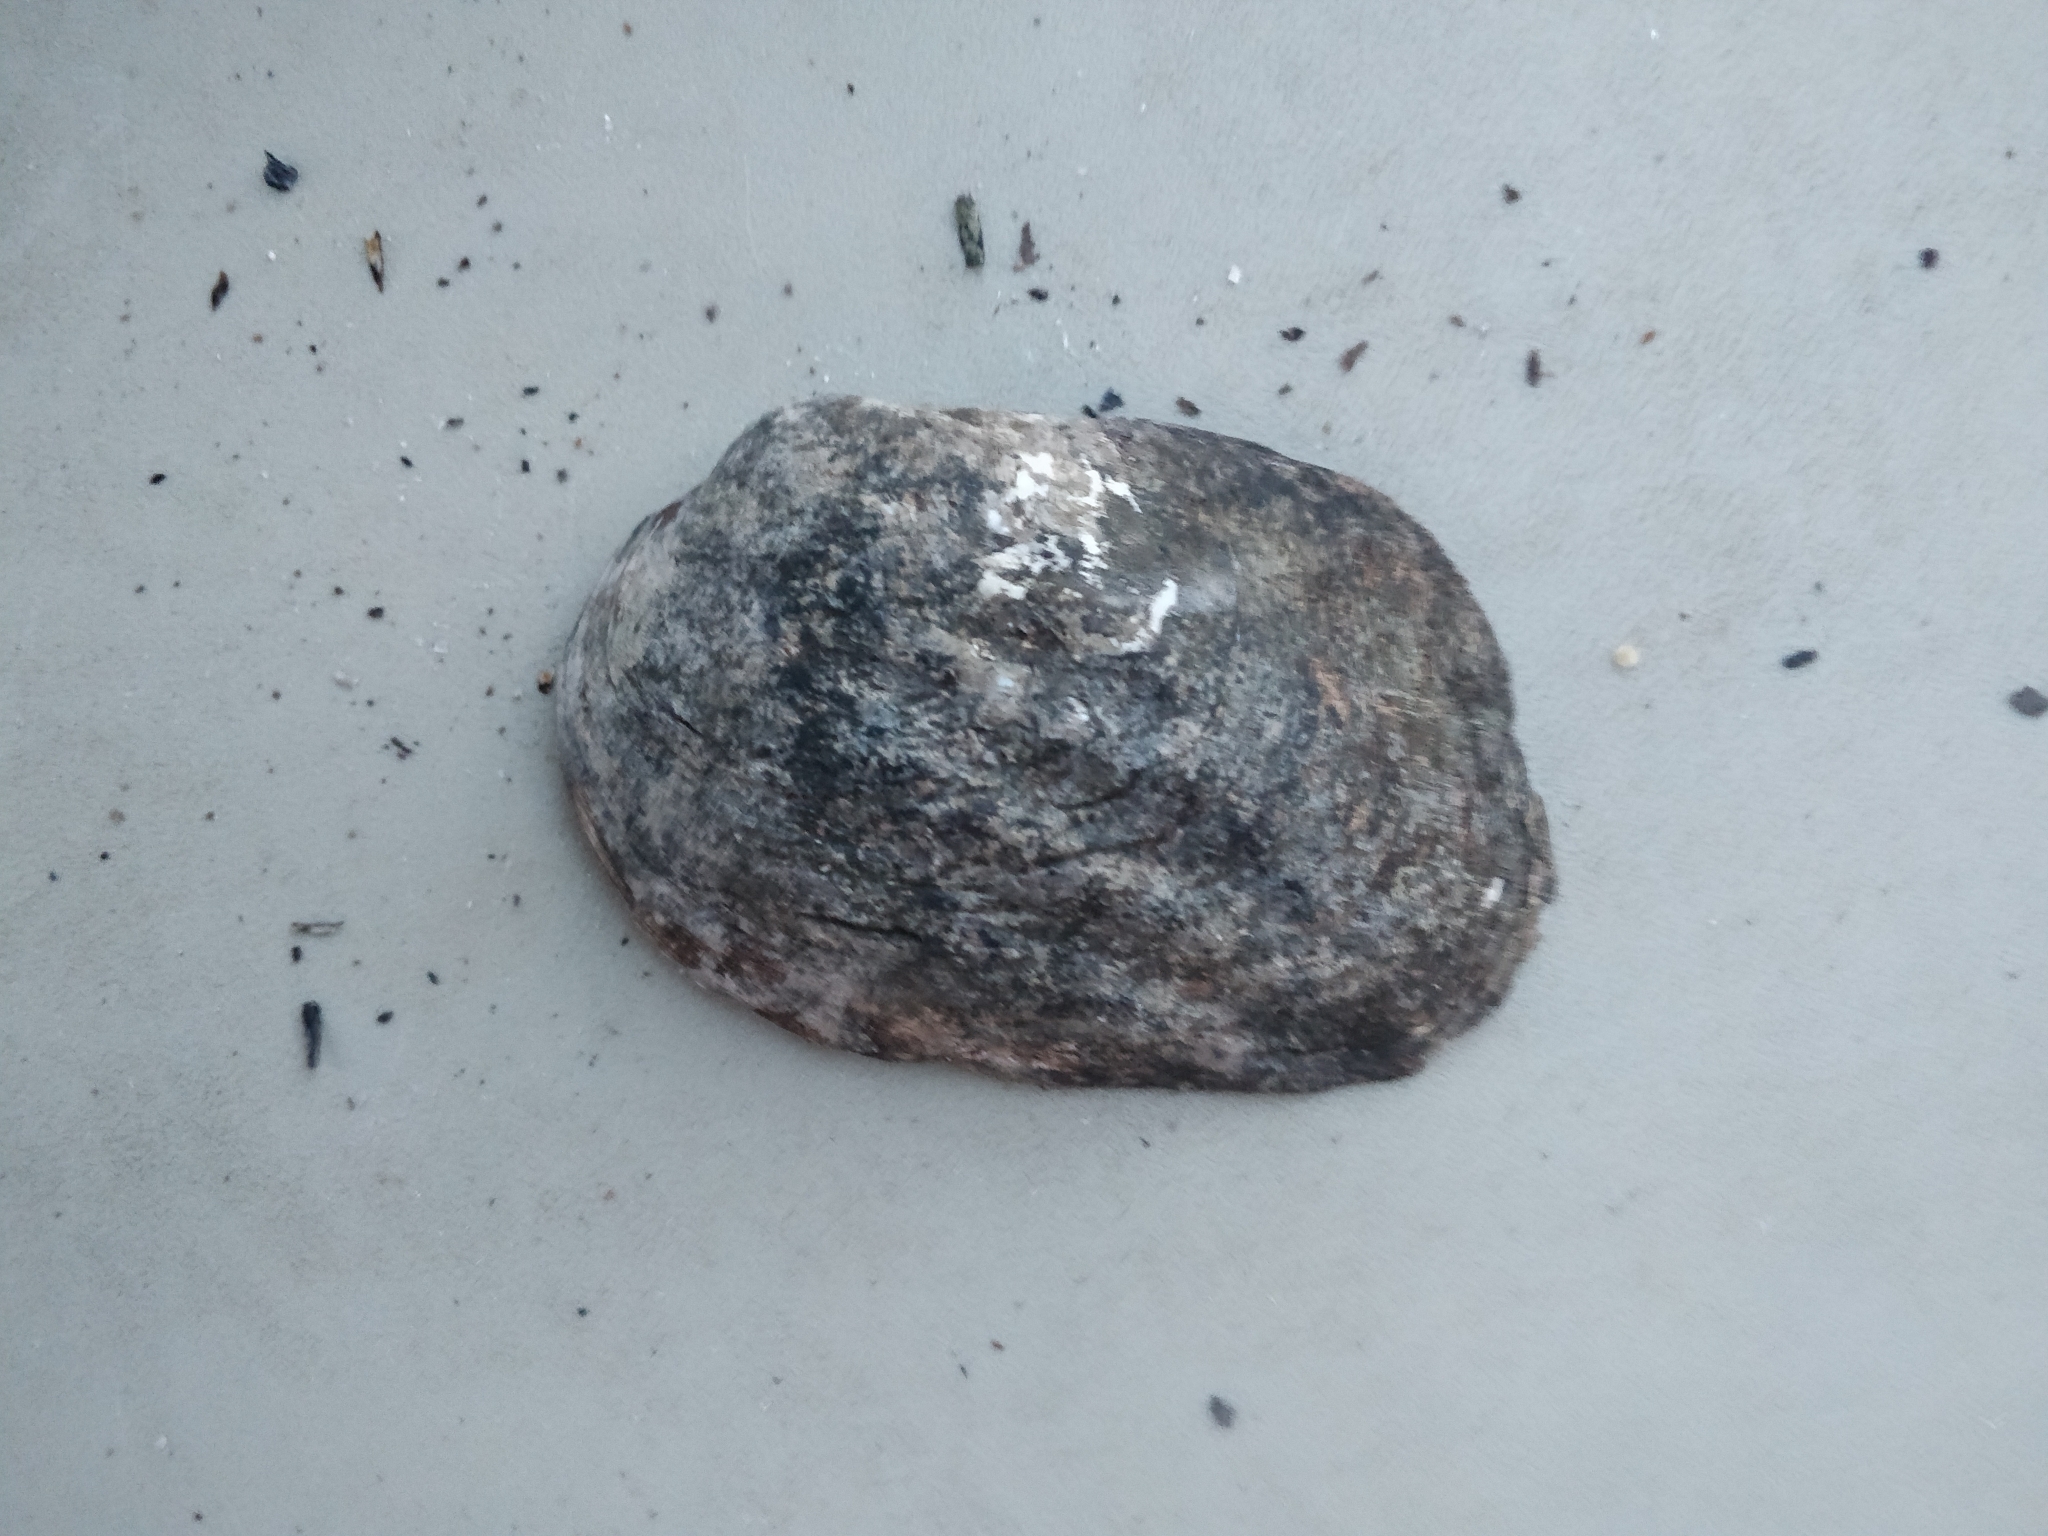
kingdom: Animalia
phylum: Mollusca
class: Bivalvia
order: Unionida
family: Unionidae
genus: Amblema
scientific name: Amblema plicata
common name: Threeridge
